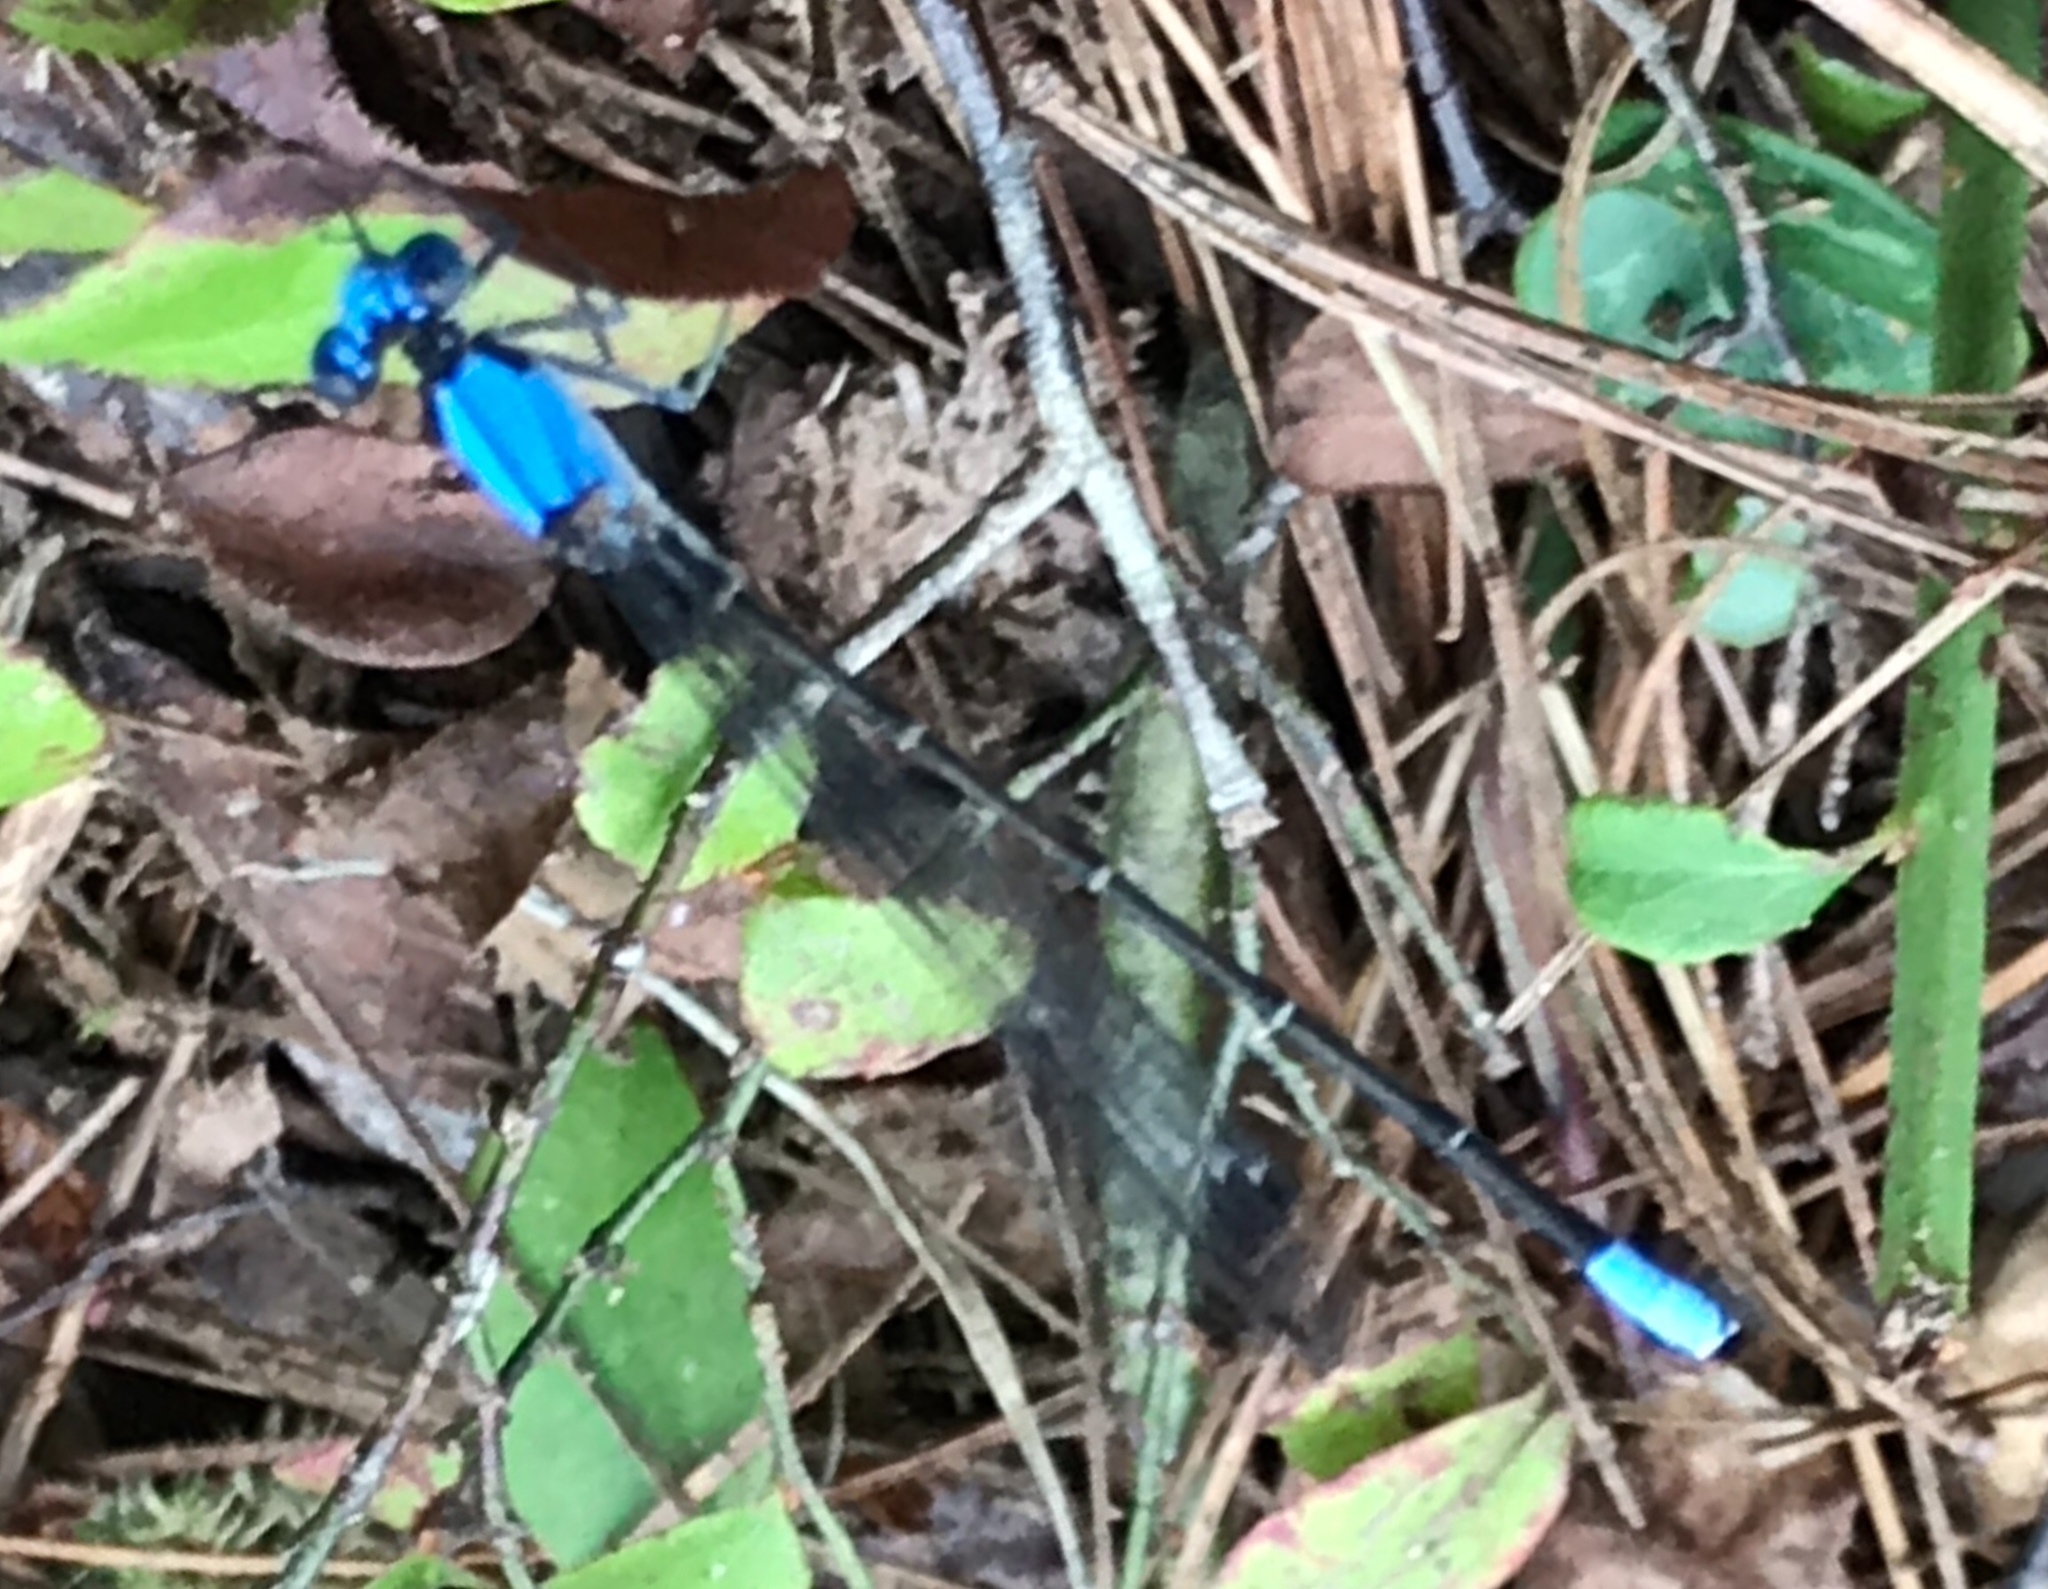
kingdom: Animalia
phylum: Arthropoda
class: Insecta
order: Odonata
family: Coenagrionidae
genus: Argia
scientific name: Argia apicalis
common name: Blue-fronted dancer
